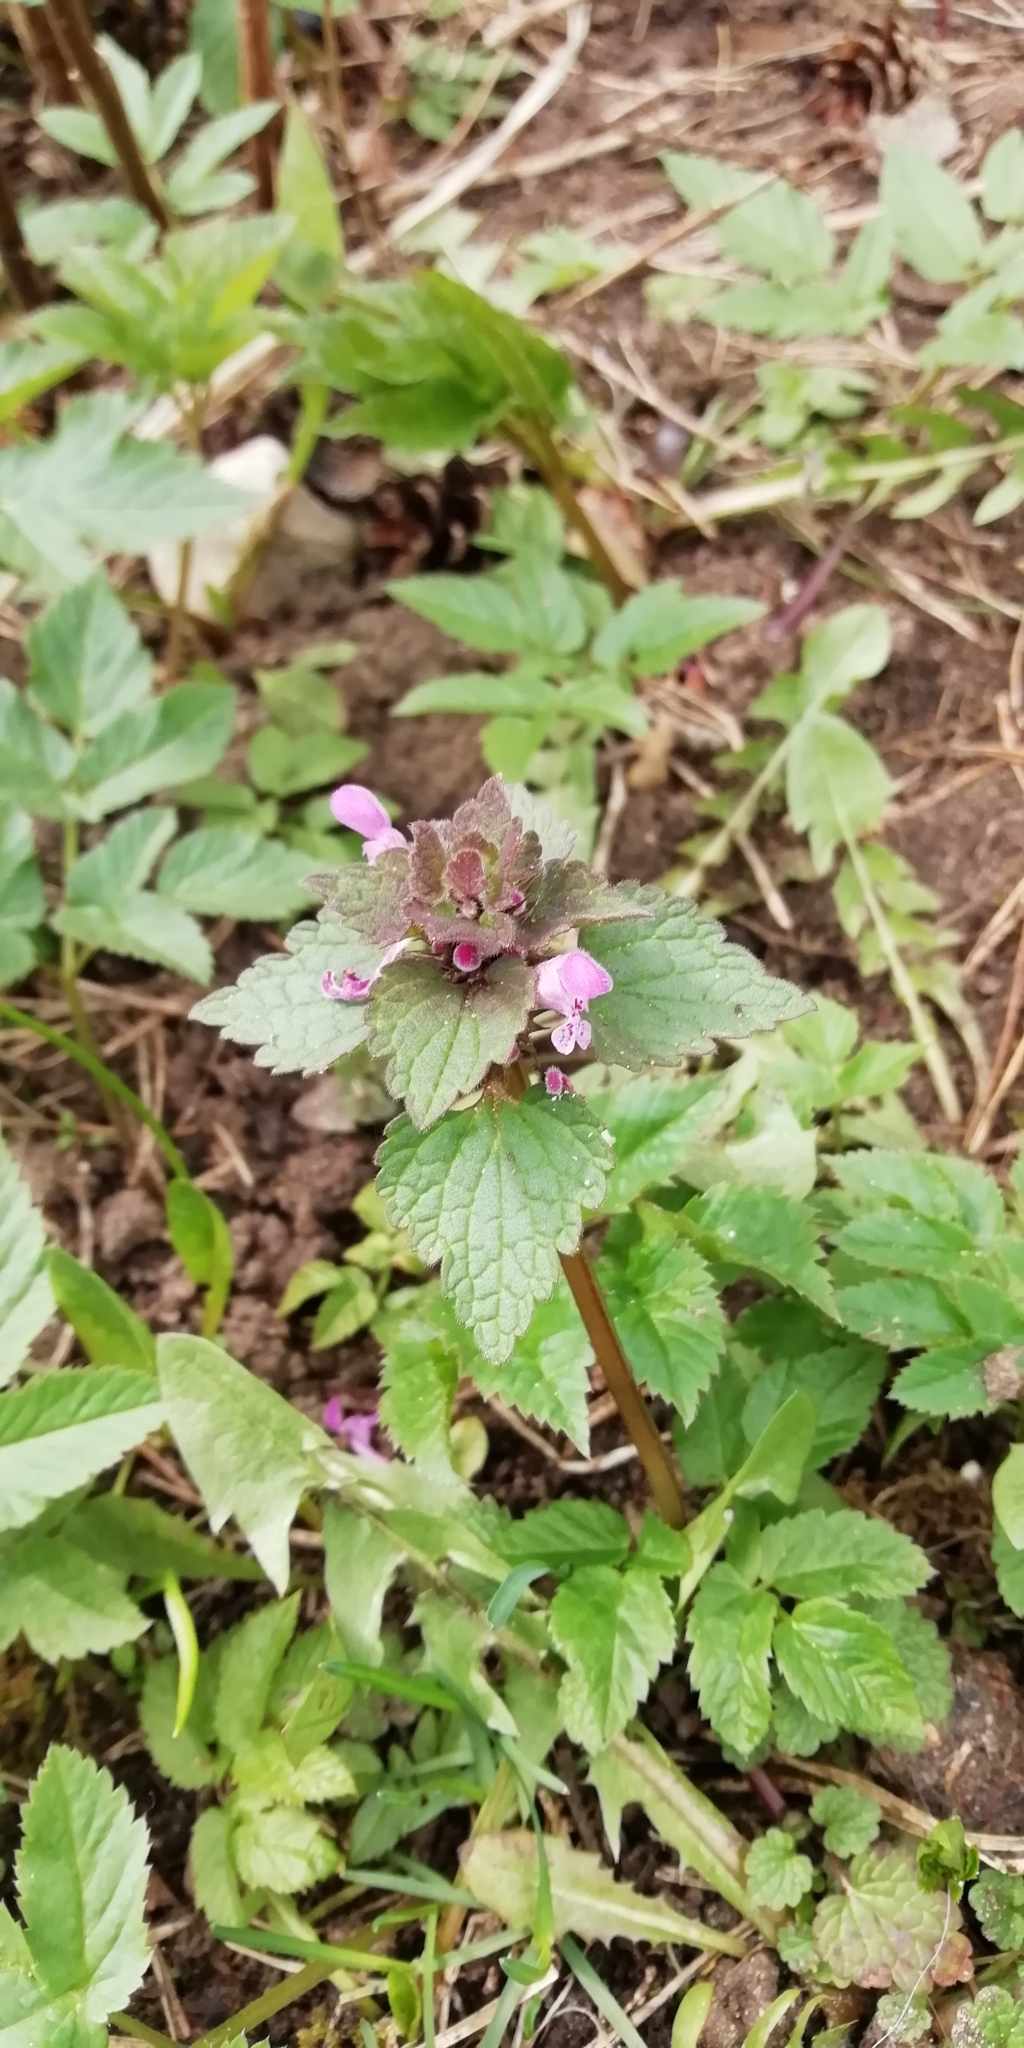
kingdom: Plantae
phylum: Tracheophyta
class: Magnoliopsida
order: Lamiales
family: Lamiaceae
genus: Lamium
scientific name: Lamium purpureum
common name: Red dead-nettle
